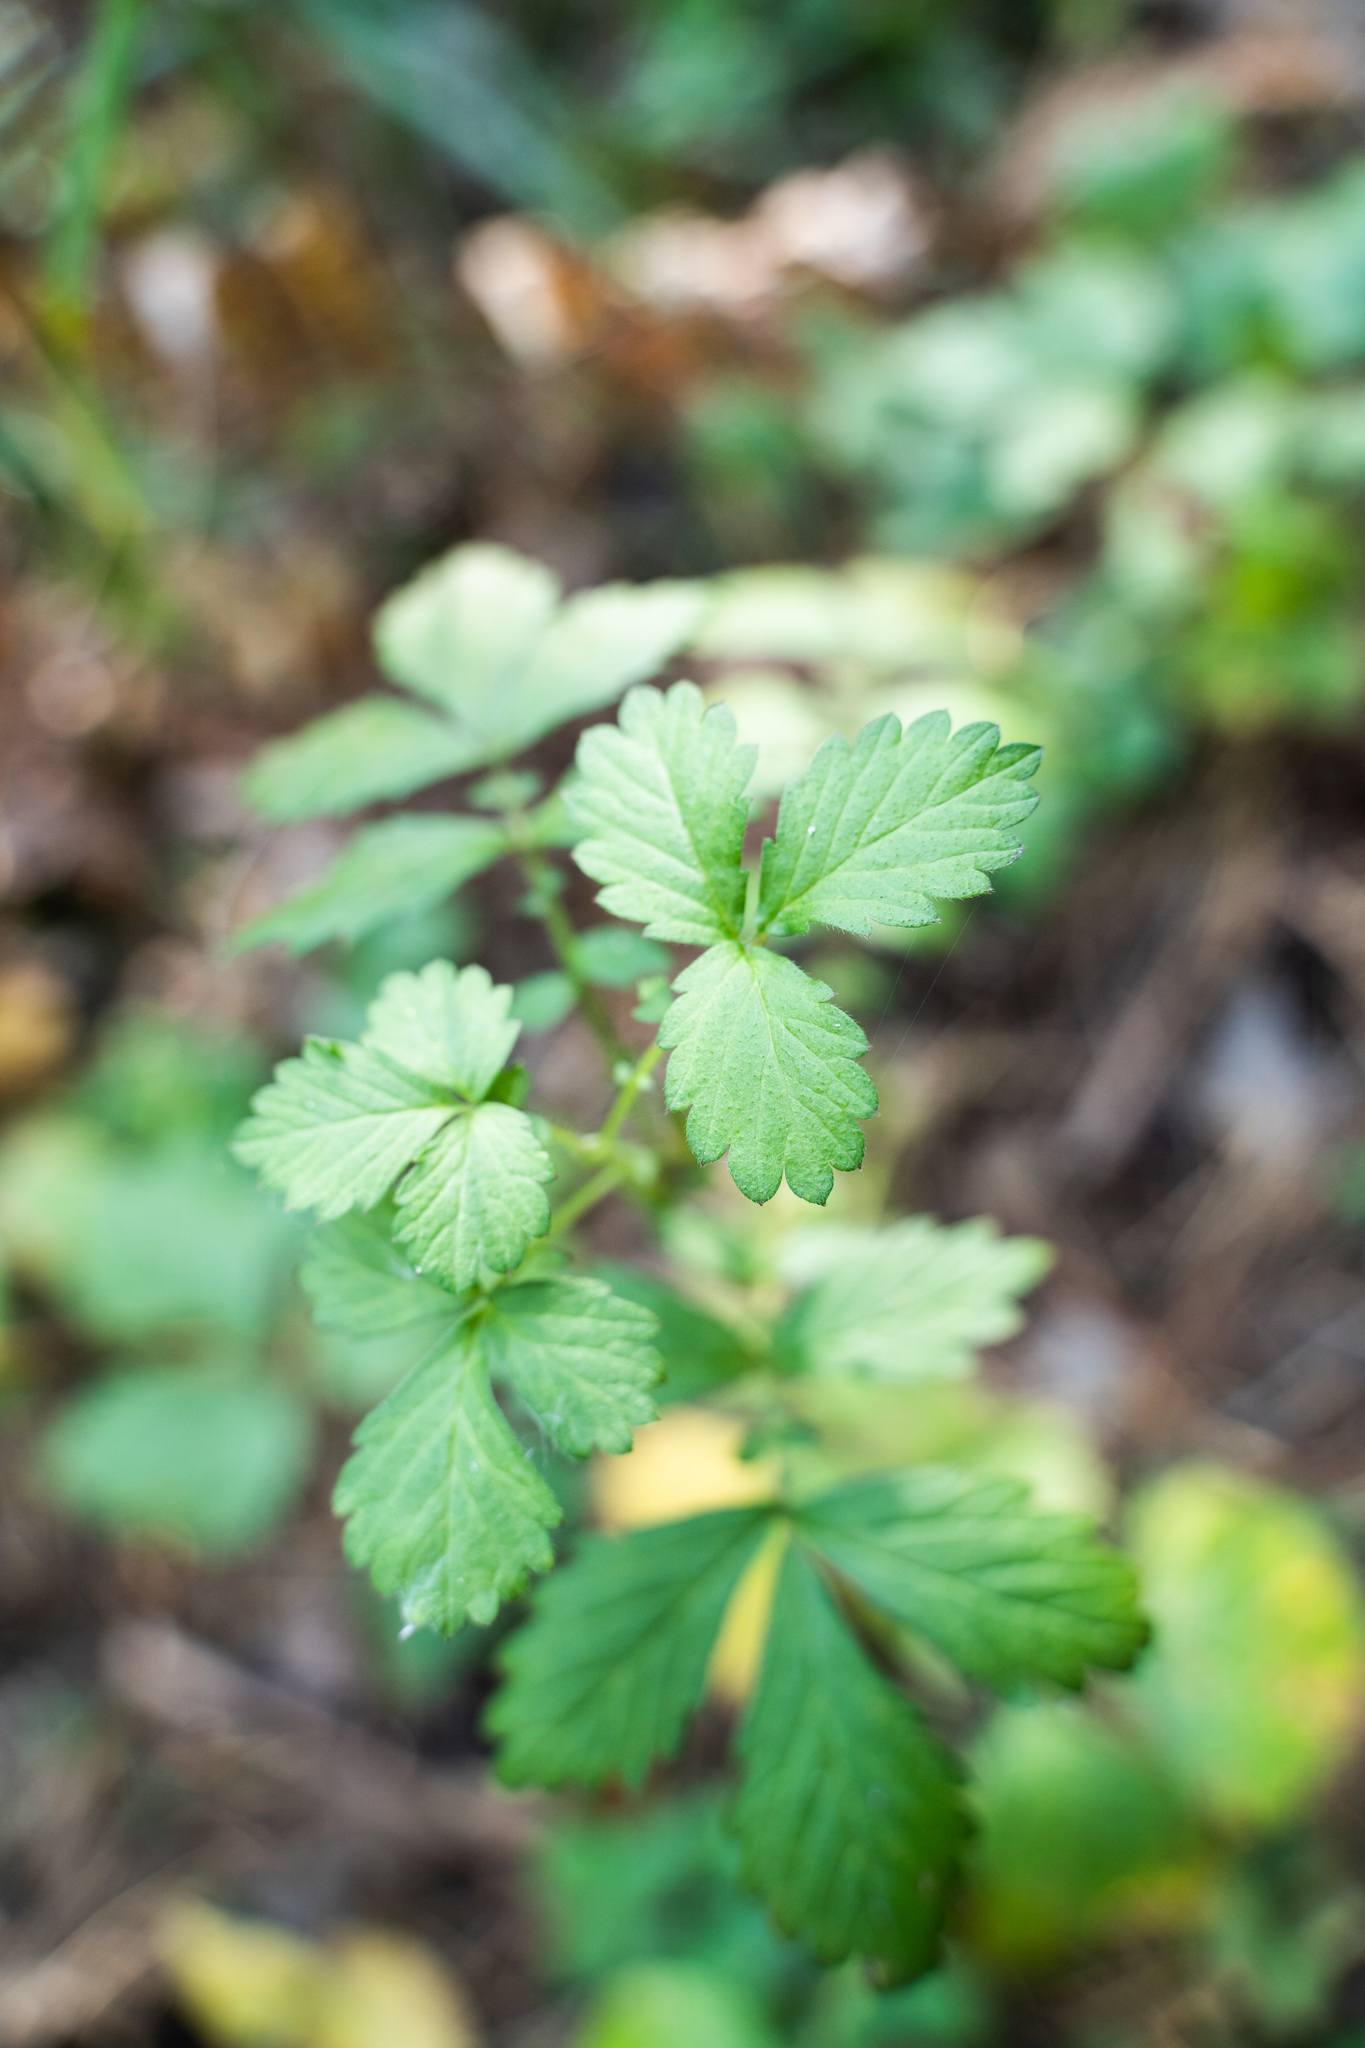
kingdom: Plantae
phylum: Tracheophyta
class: Magnoliopsida
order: Rosales
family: Rosaceae
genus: Agrimonia
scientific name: Agrimonia pilosa
